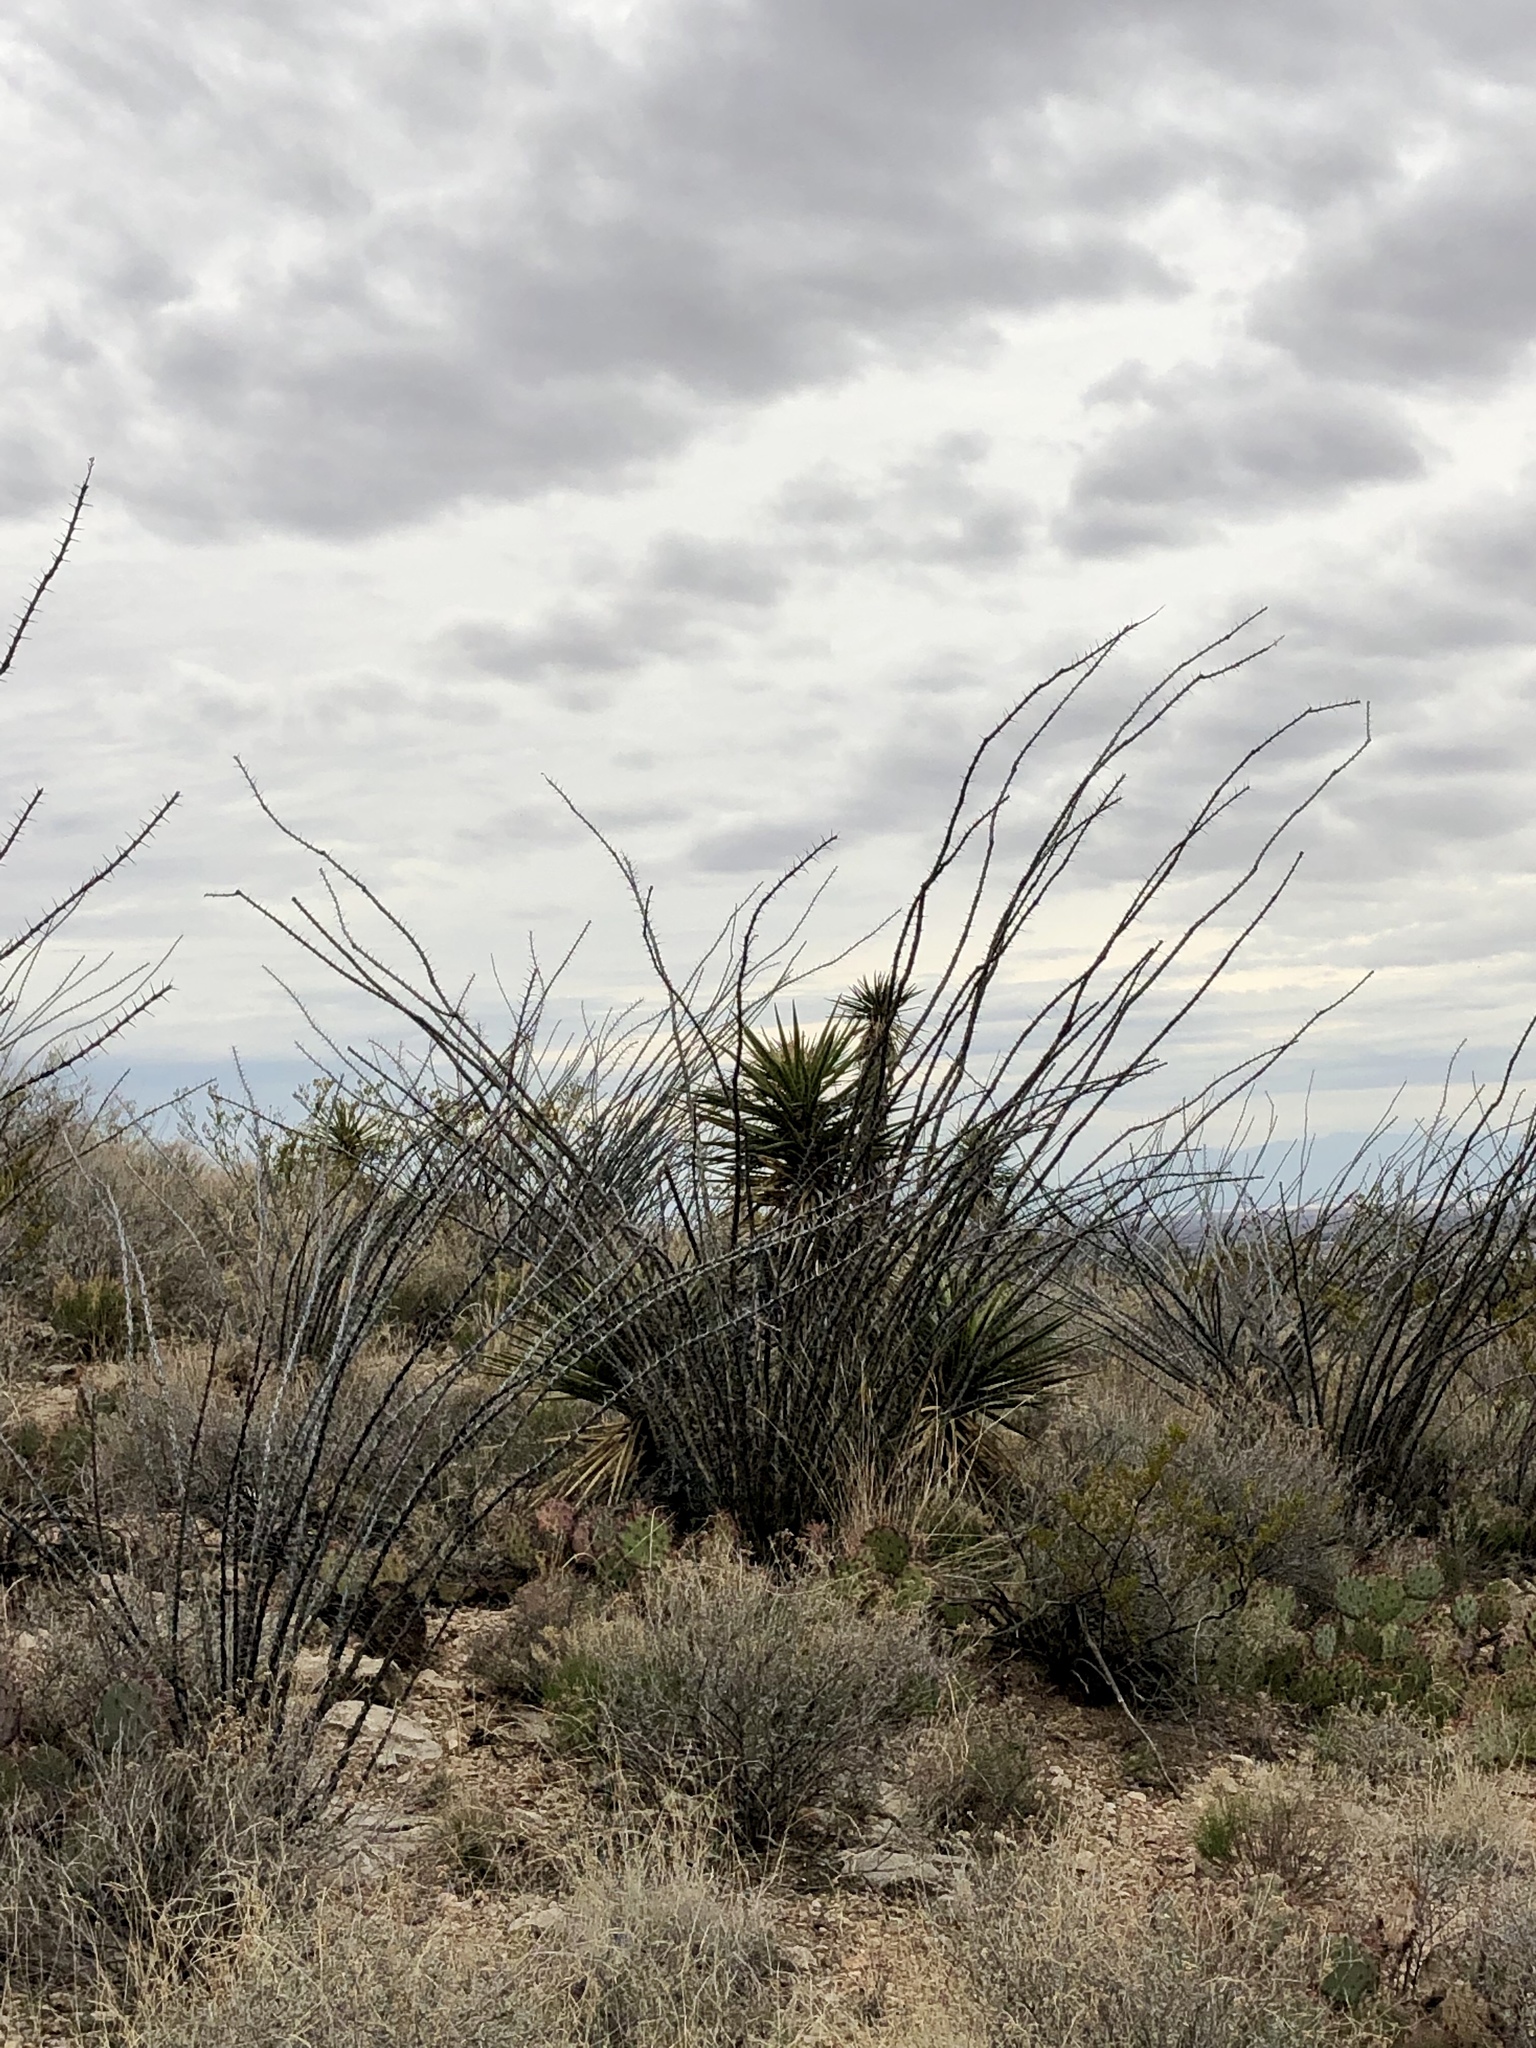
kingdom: Plantae
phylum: Tracheophyta
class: Magnoliopsida
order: Ericales
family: Fouquieriaceae
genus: Fouquieria
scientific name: Fouquieria splendens
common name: Vine-cactus
